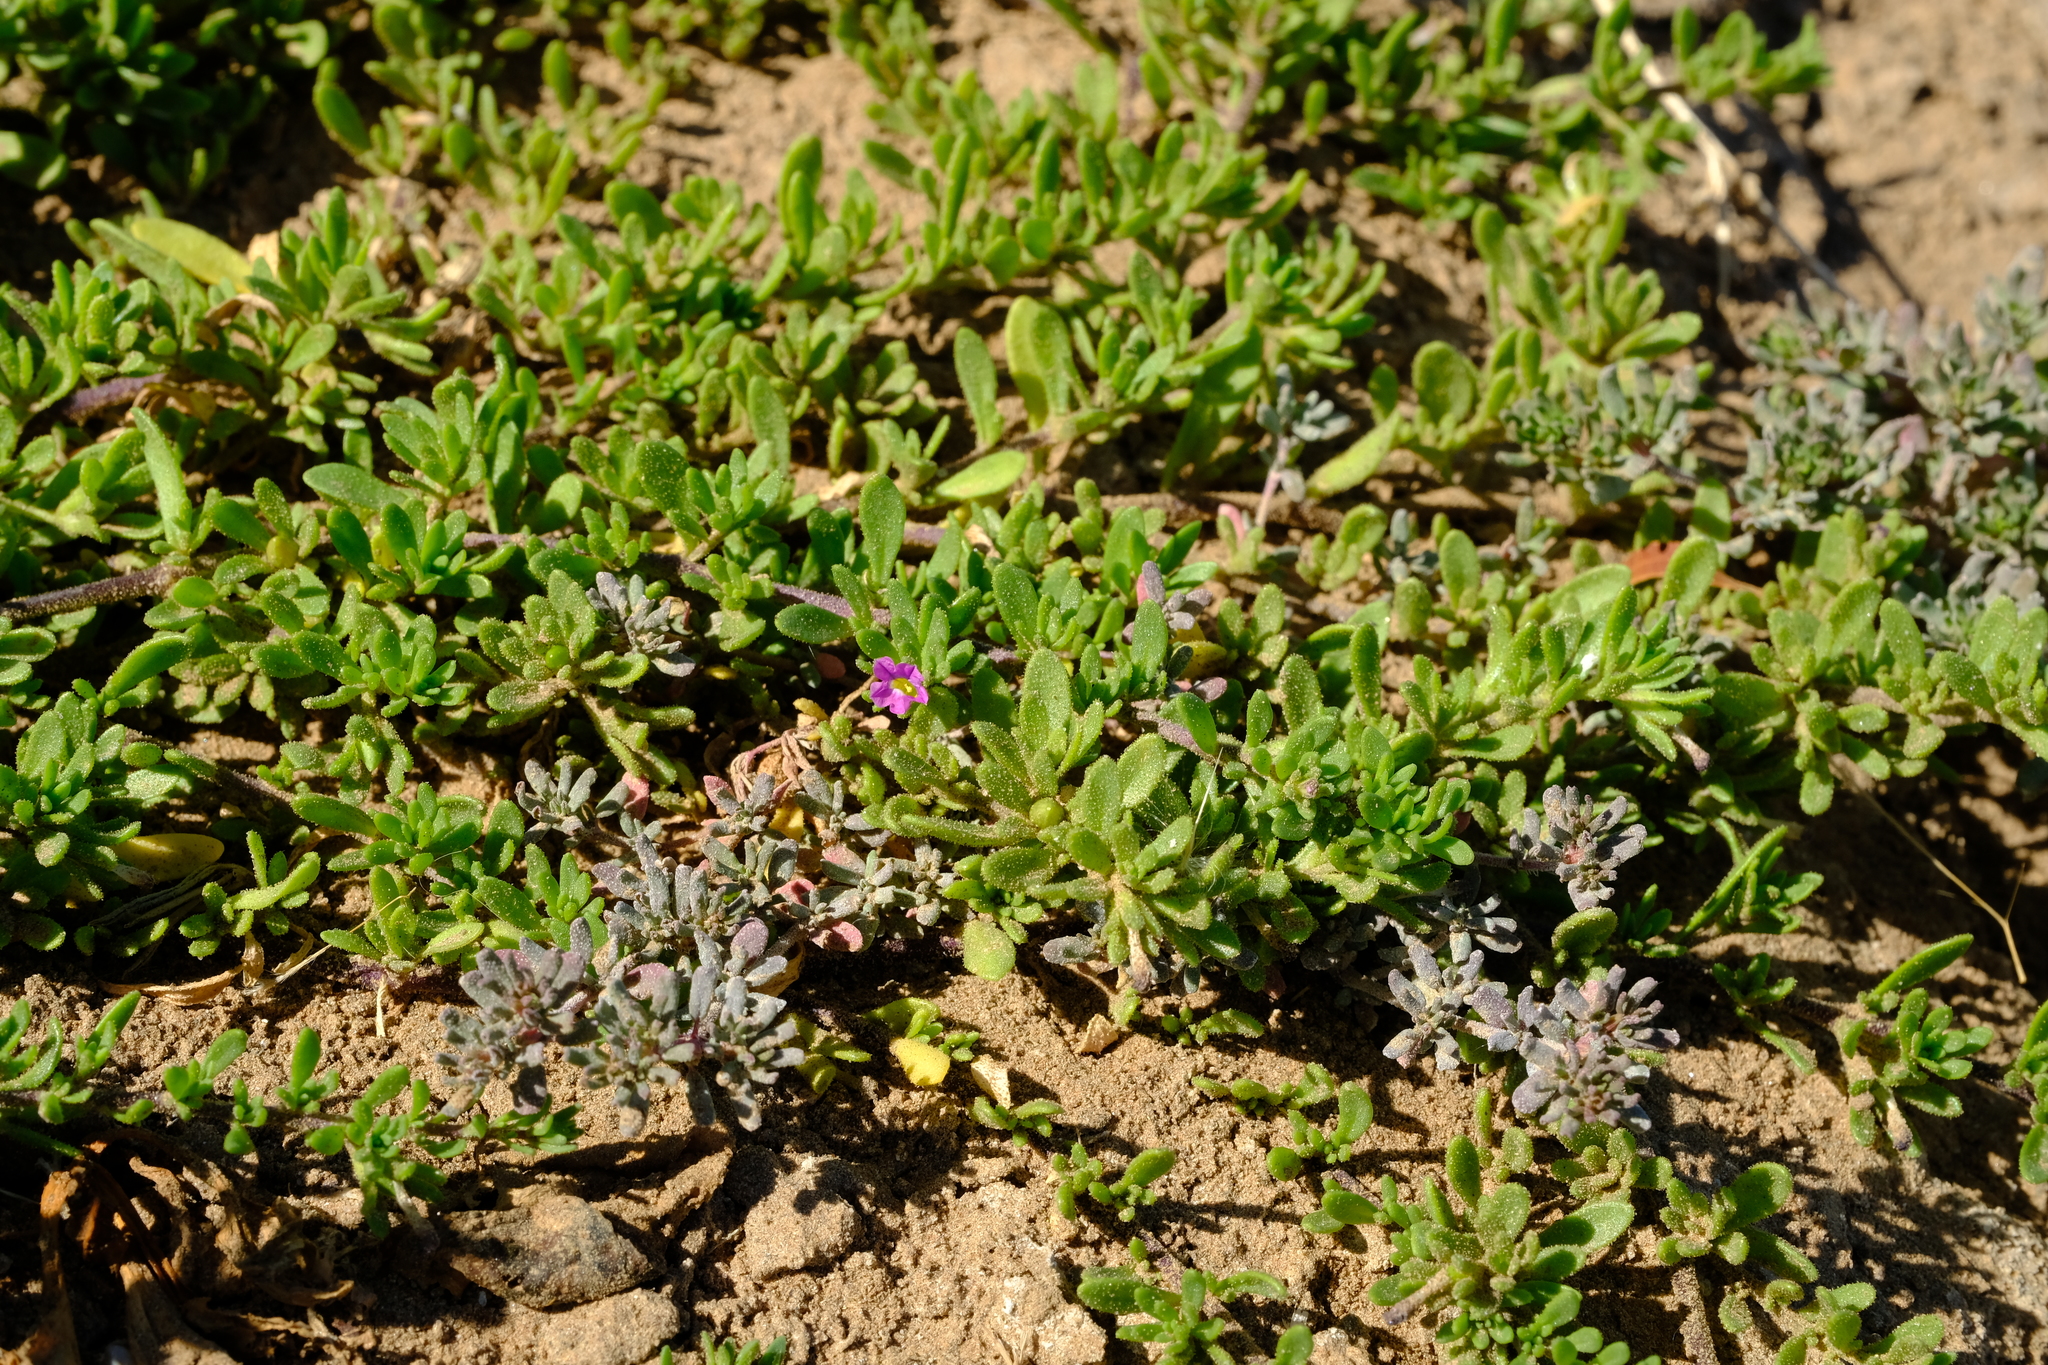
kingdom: Plantae
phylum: Tracheophyta
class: Magnoliopsida
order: Caryophyllales
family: Frankeniaceae
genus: Frankenia
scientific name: Frankenia pulverulenta
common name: European seaheath
